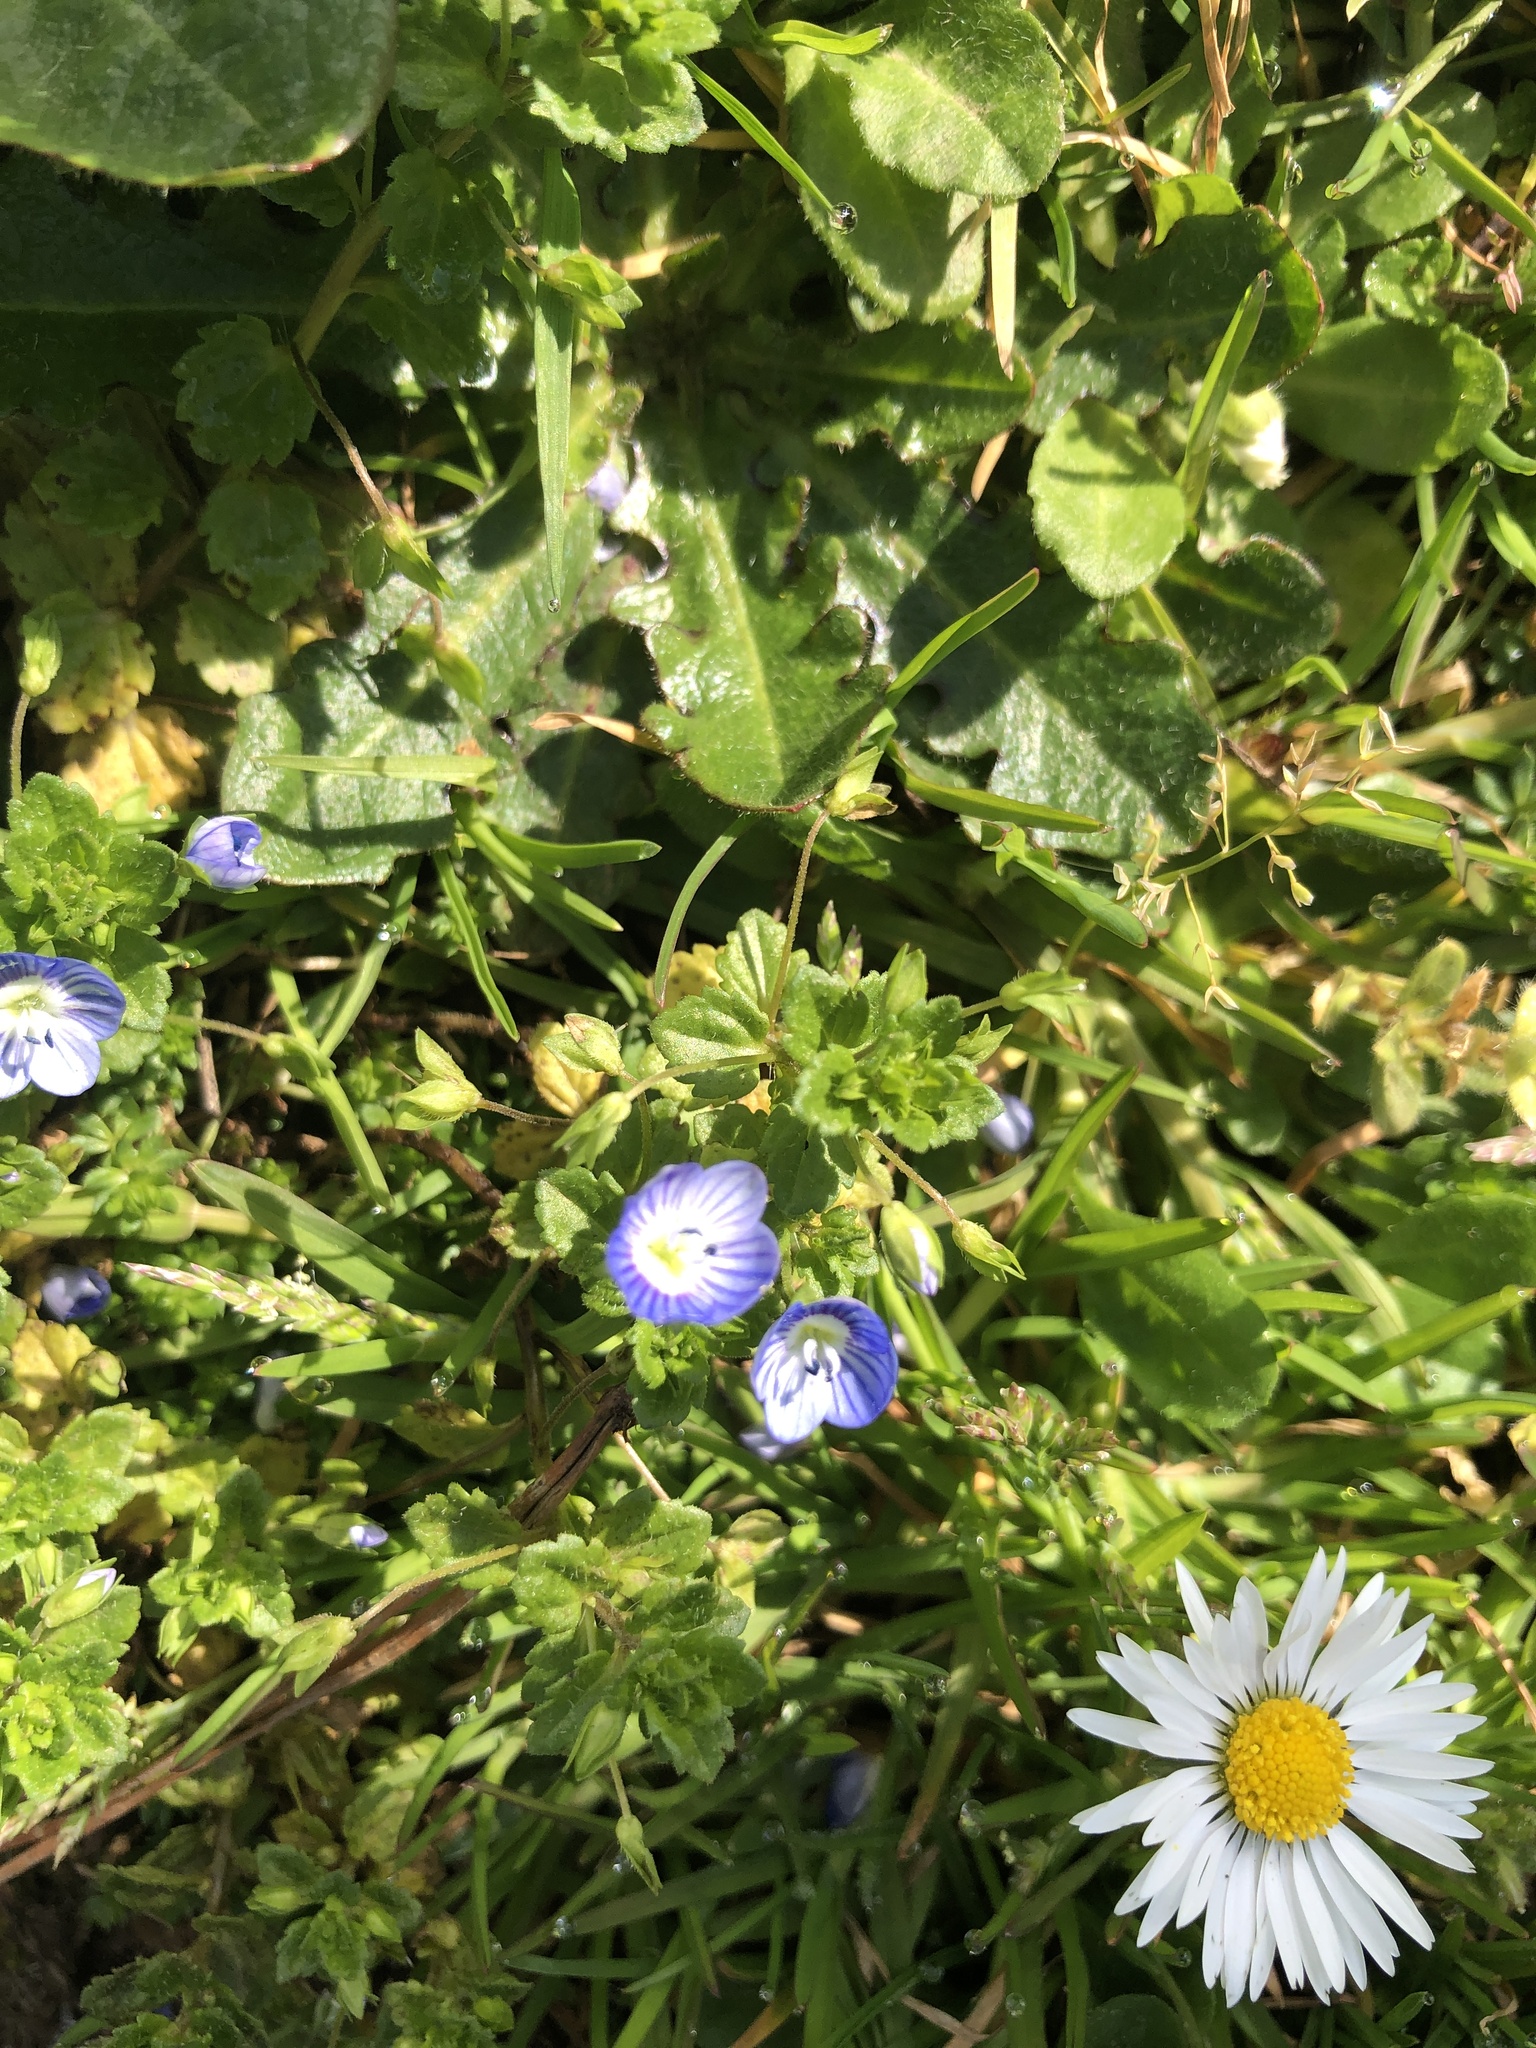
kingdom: Plantae
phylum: Tracheophyta
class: Magnoliopsida
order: Lamiales
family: Plantaginaceae
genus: Veronica
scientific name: Veronica chamaedrys
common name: Germander speedwell
